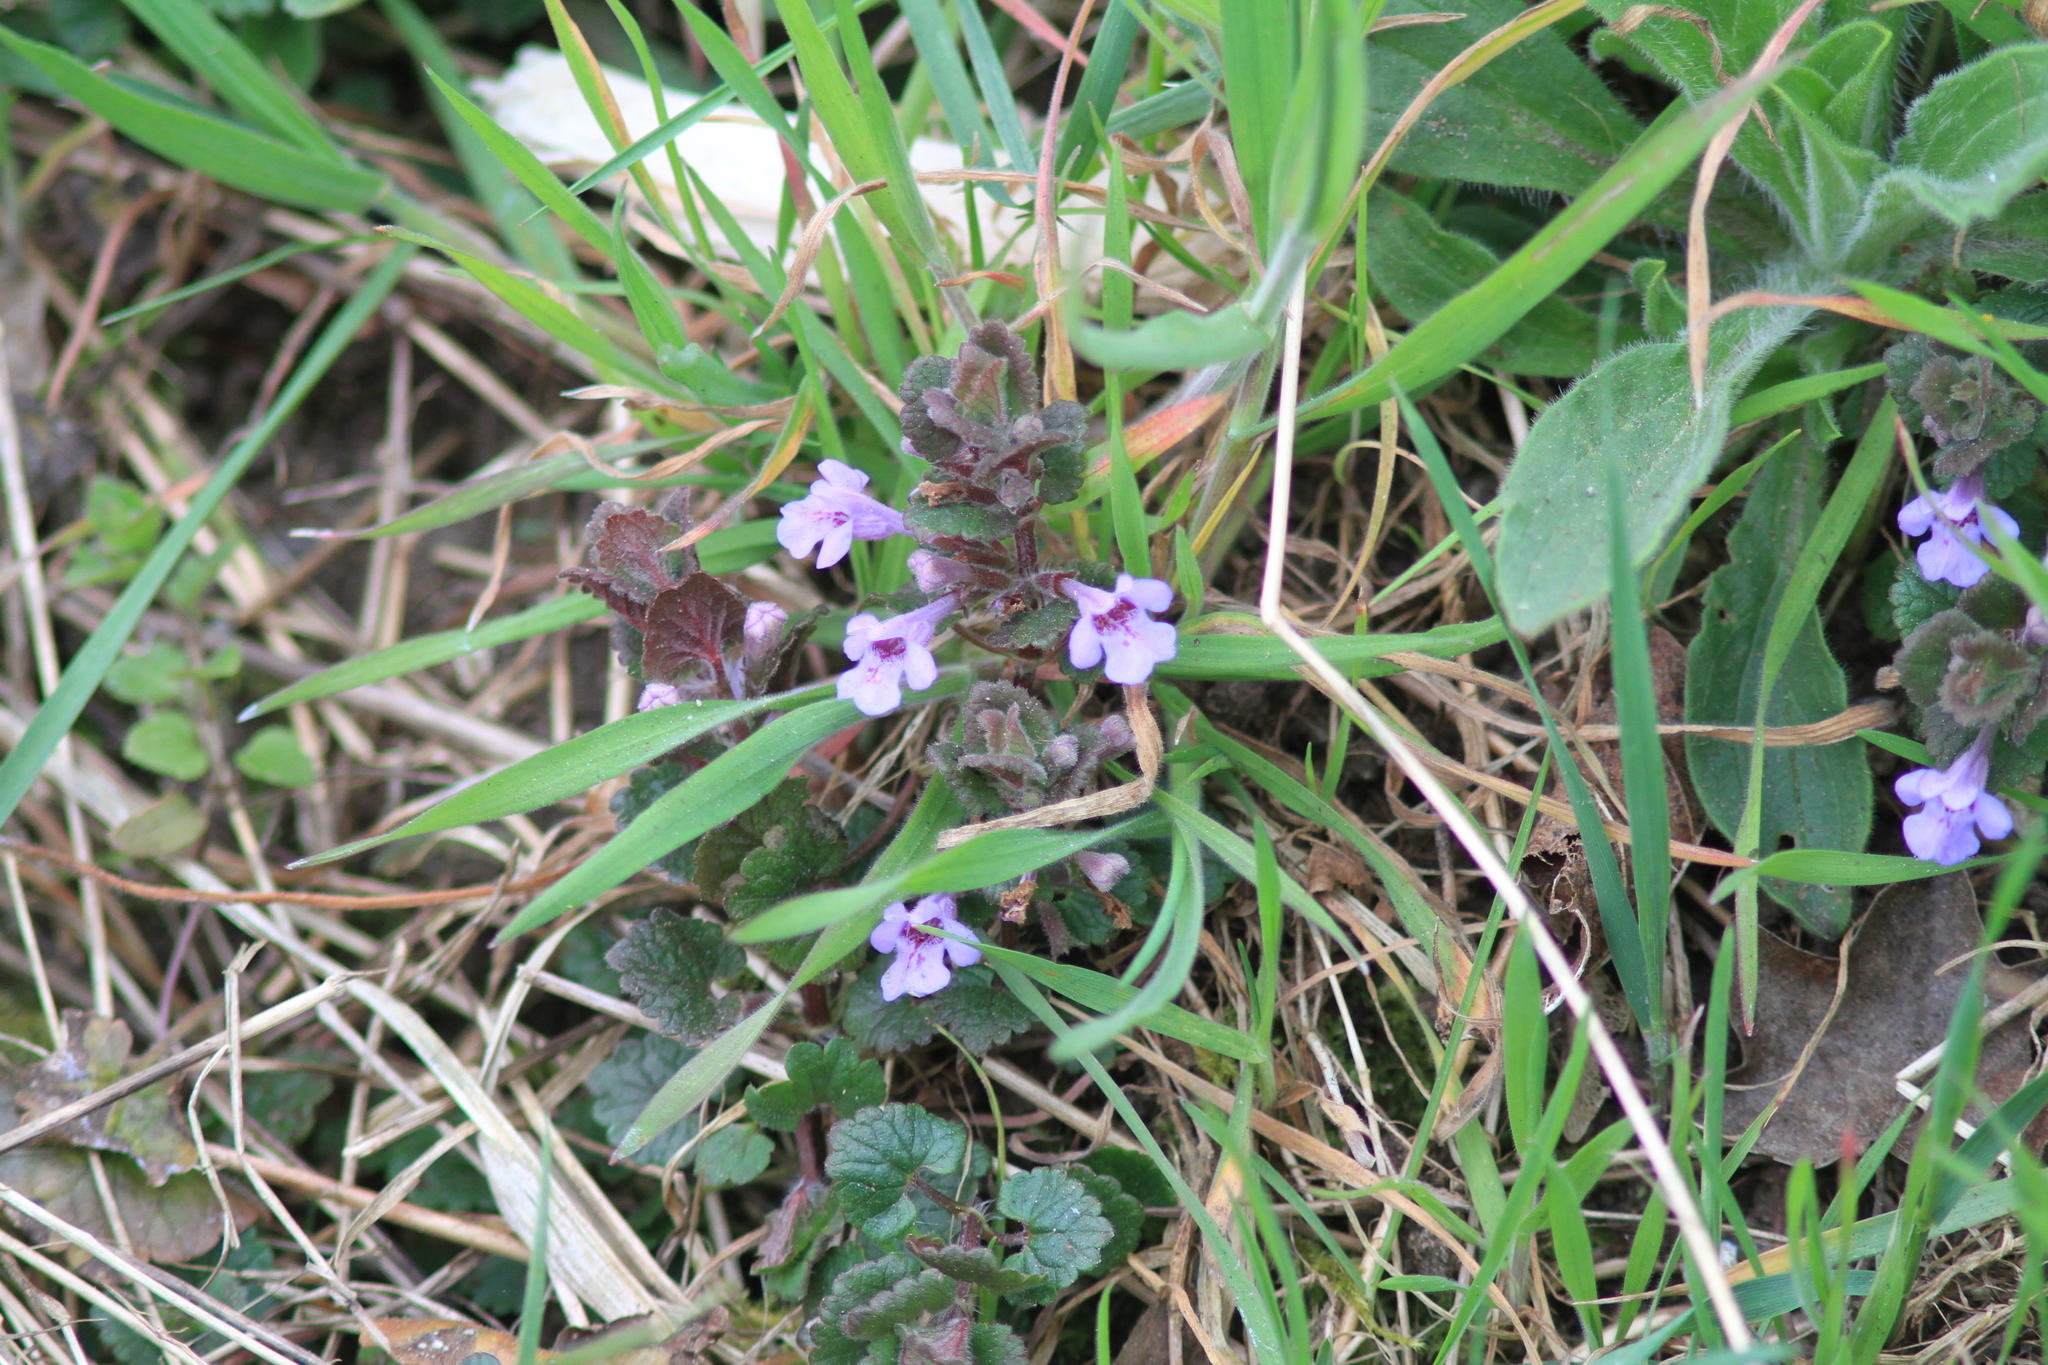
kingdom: Plantae
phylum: Tracheophyta
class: Magnoliopsida
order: Lamiales
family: Lamiaceae
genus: Glechoma
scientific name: Glechoma hederacea
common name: Ground ivy
